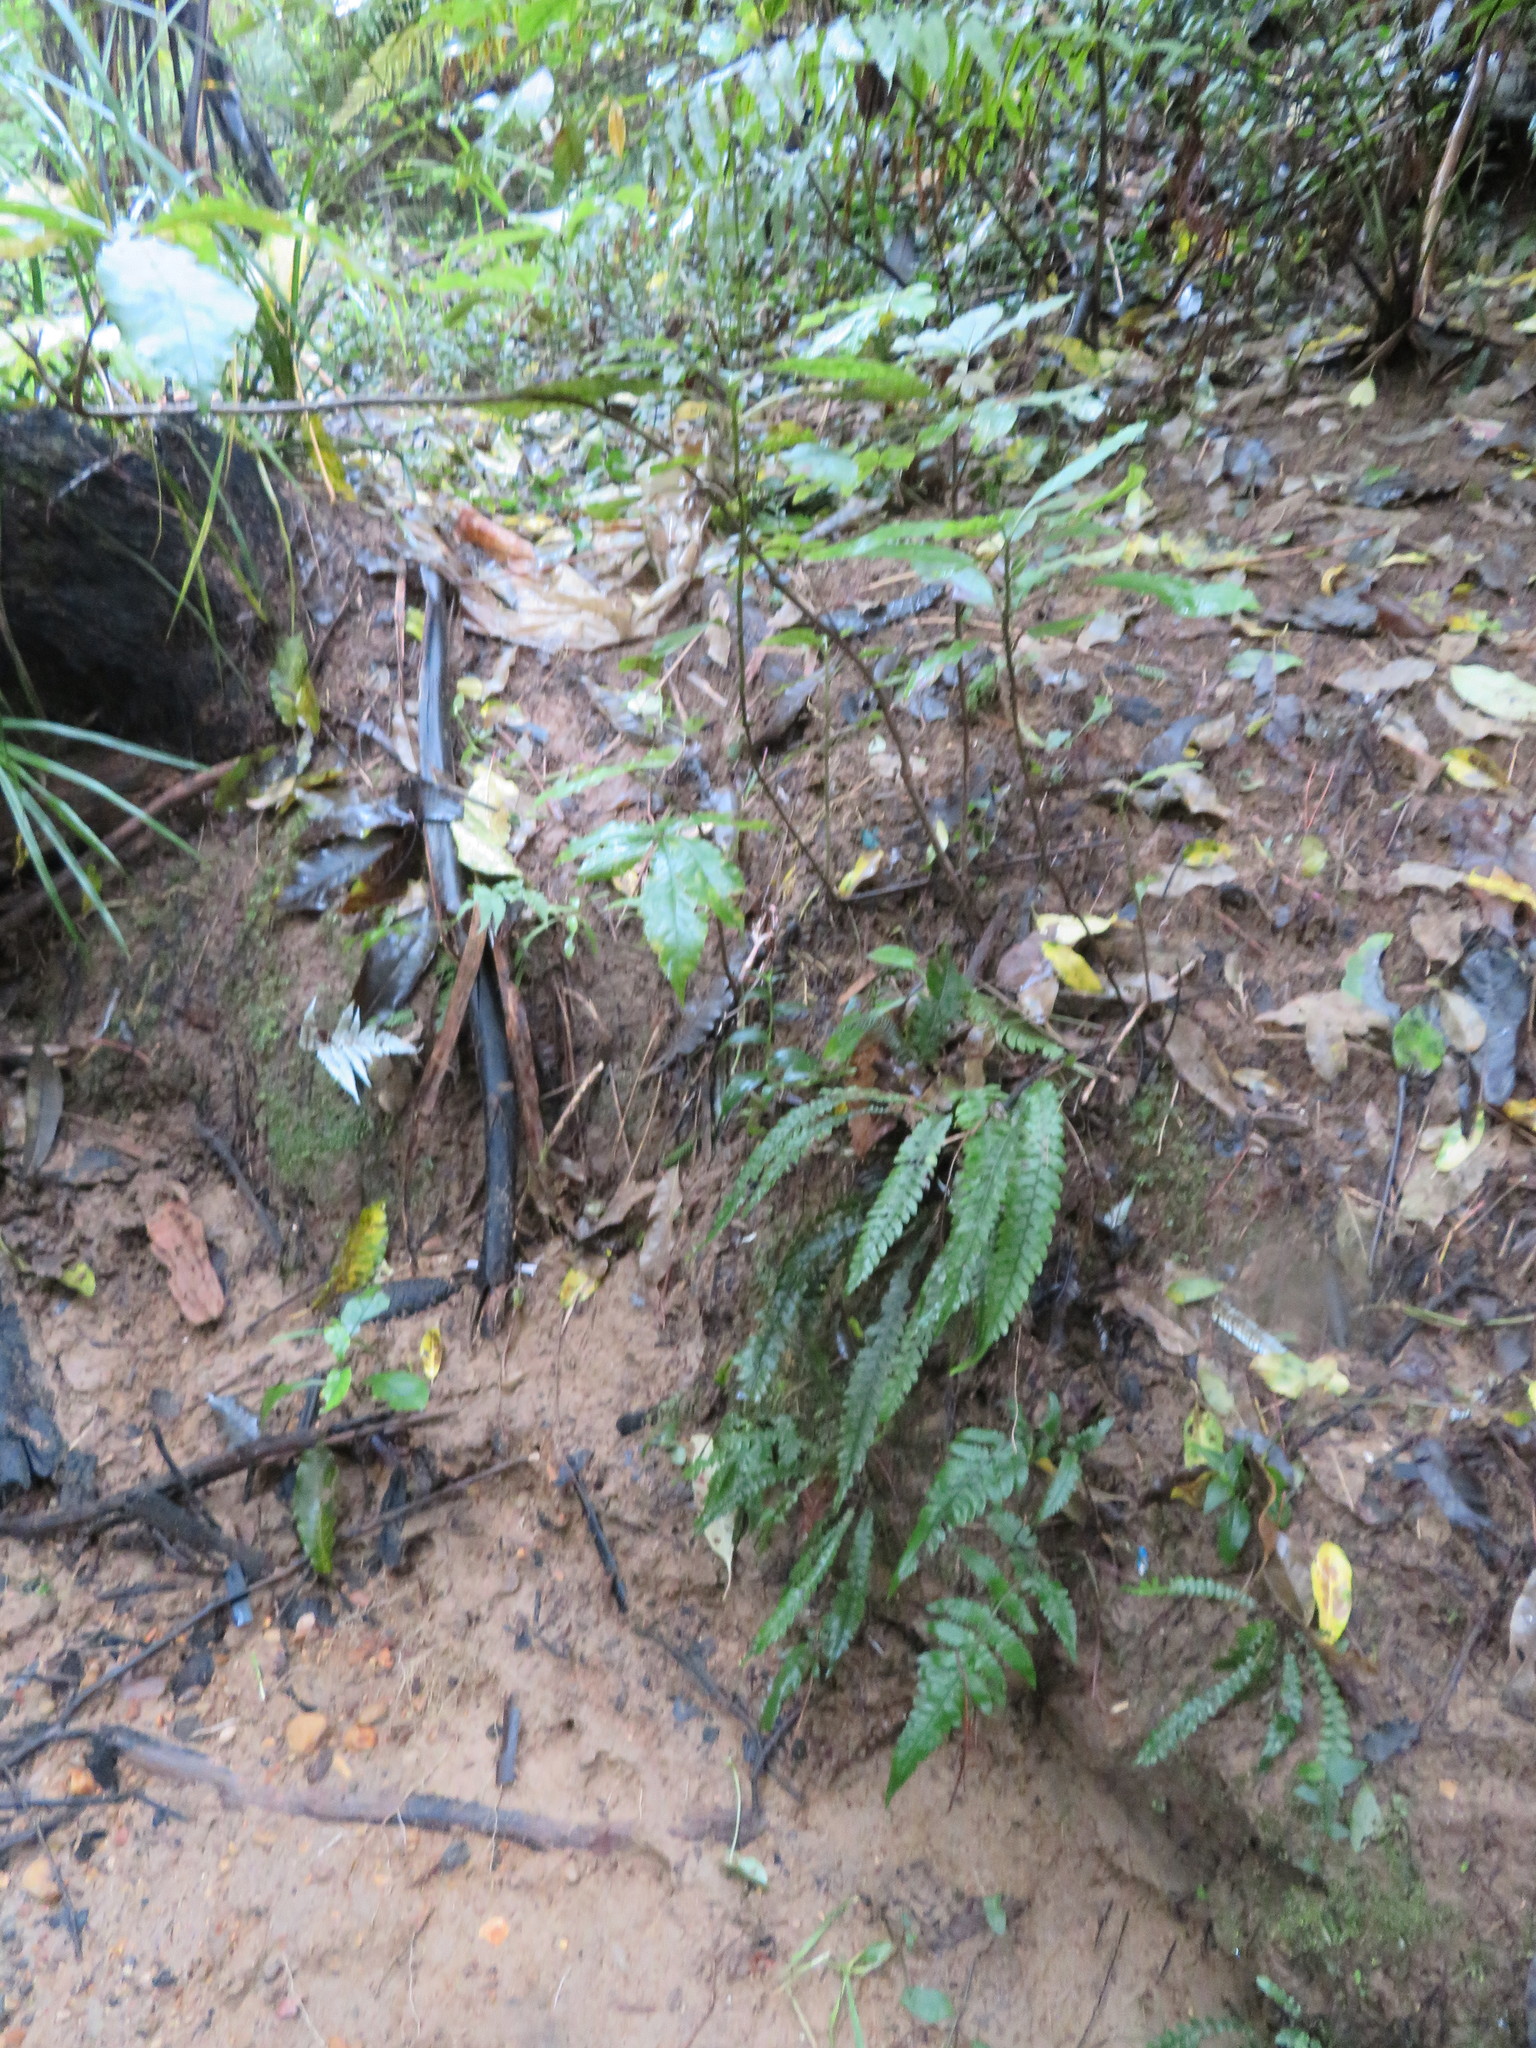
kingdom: Plantae
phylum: Tracheophyta
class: Polypodiopsida
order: Polypodiales
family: Blechnaceae
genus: Austroblechnum
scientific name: Austroblechnum lanceolatum
